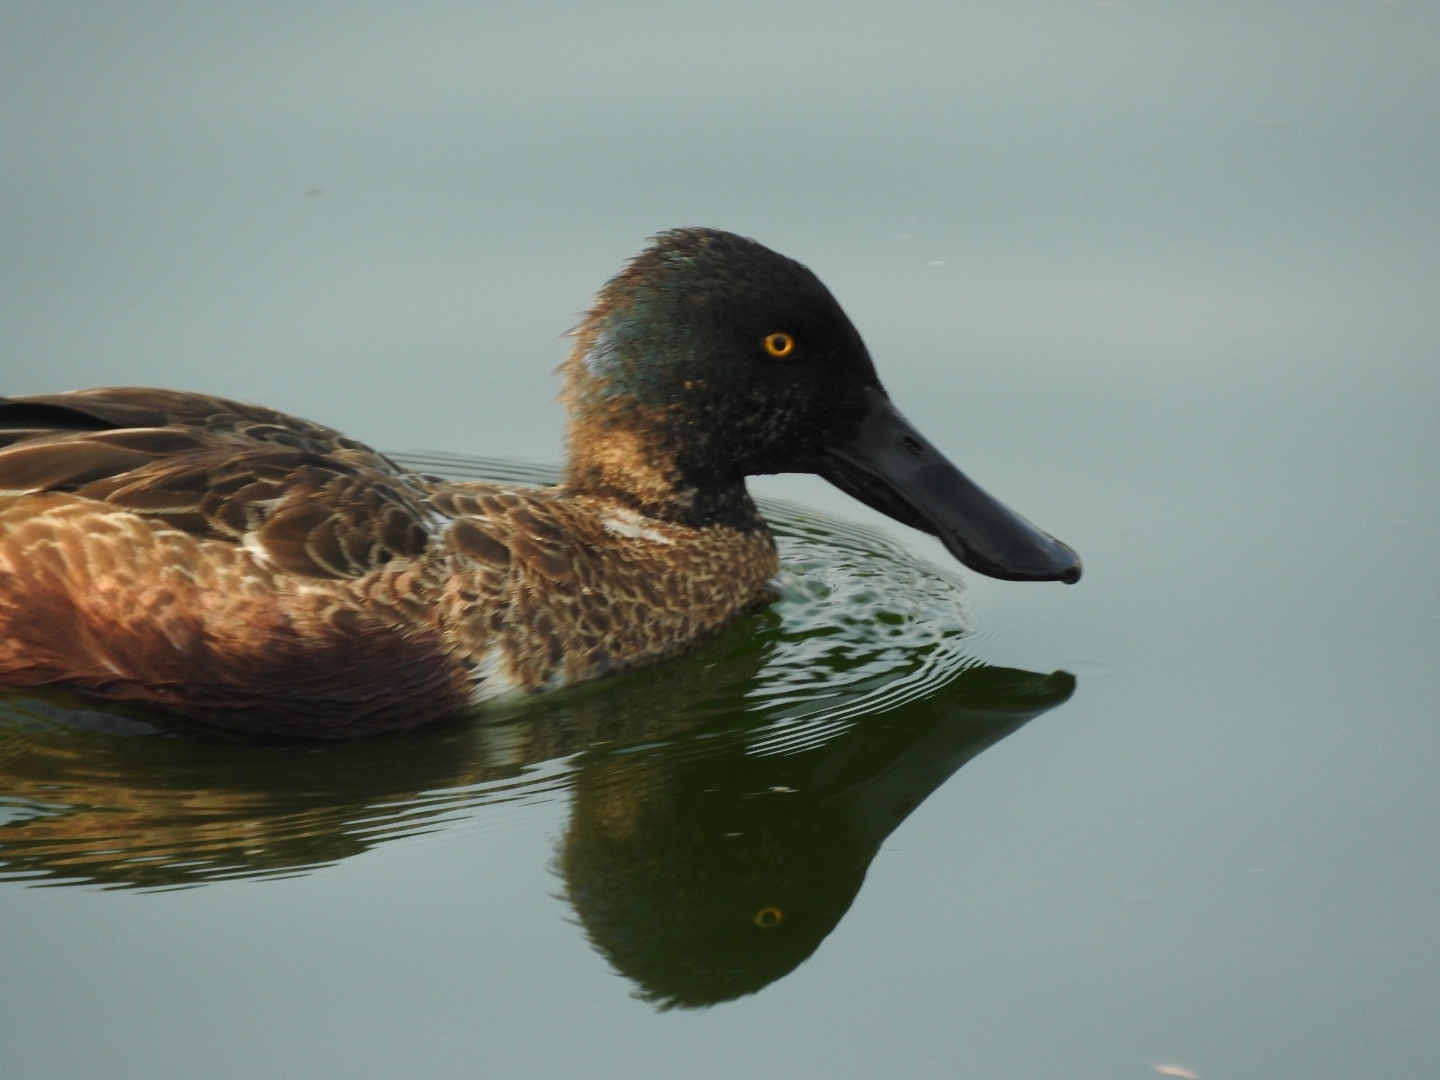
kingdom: Animalia
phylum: Chordata
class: Aves
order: Anseriformes
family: Anatidae
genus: Spatula
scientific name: Spatula clypeata
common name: Northern shoveler
